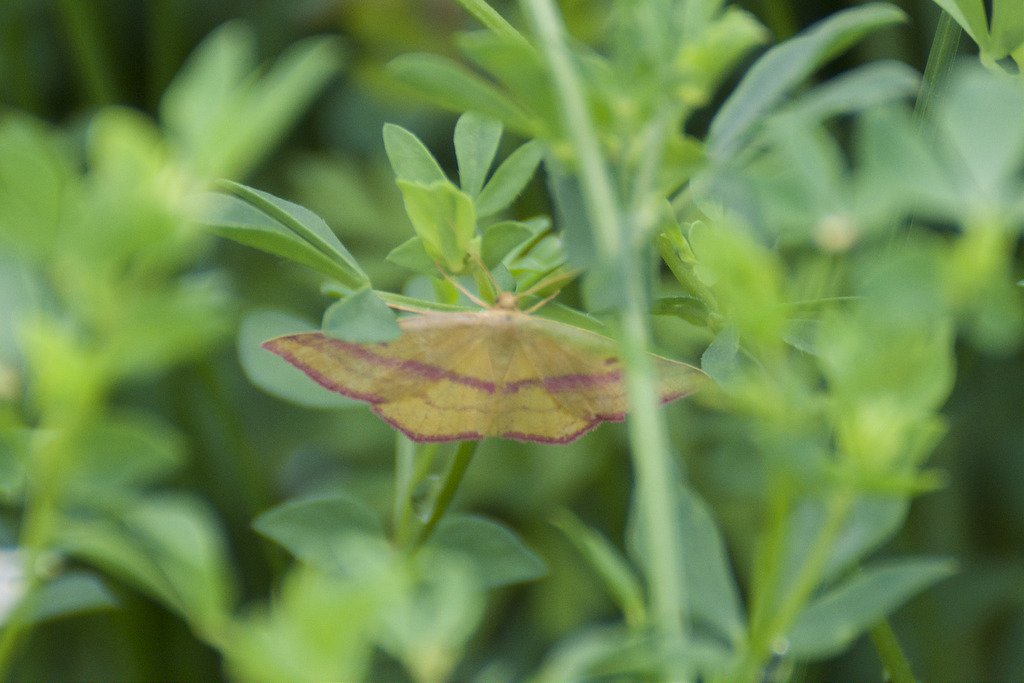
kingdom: Animalia
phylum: Arthropoda
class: Insecta
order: Lepidoptera
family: Geometridae
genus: Haematopis
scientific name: Haematopis grataria
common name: Chickweed geometer
